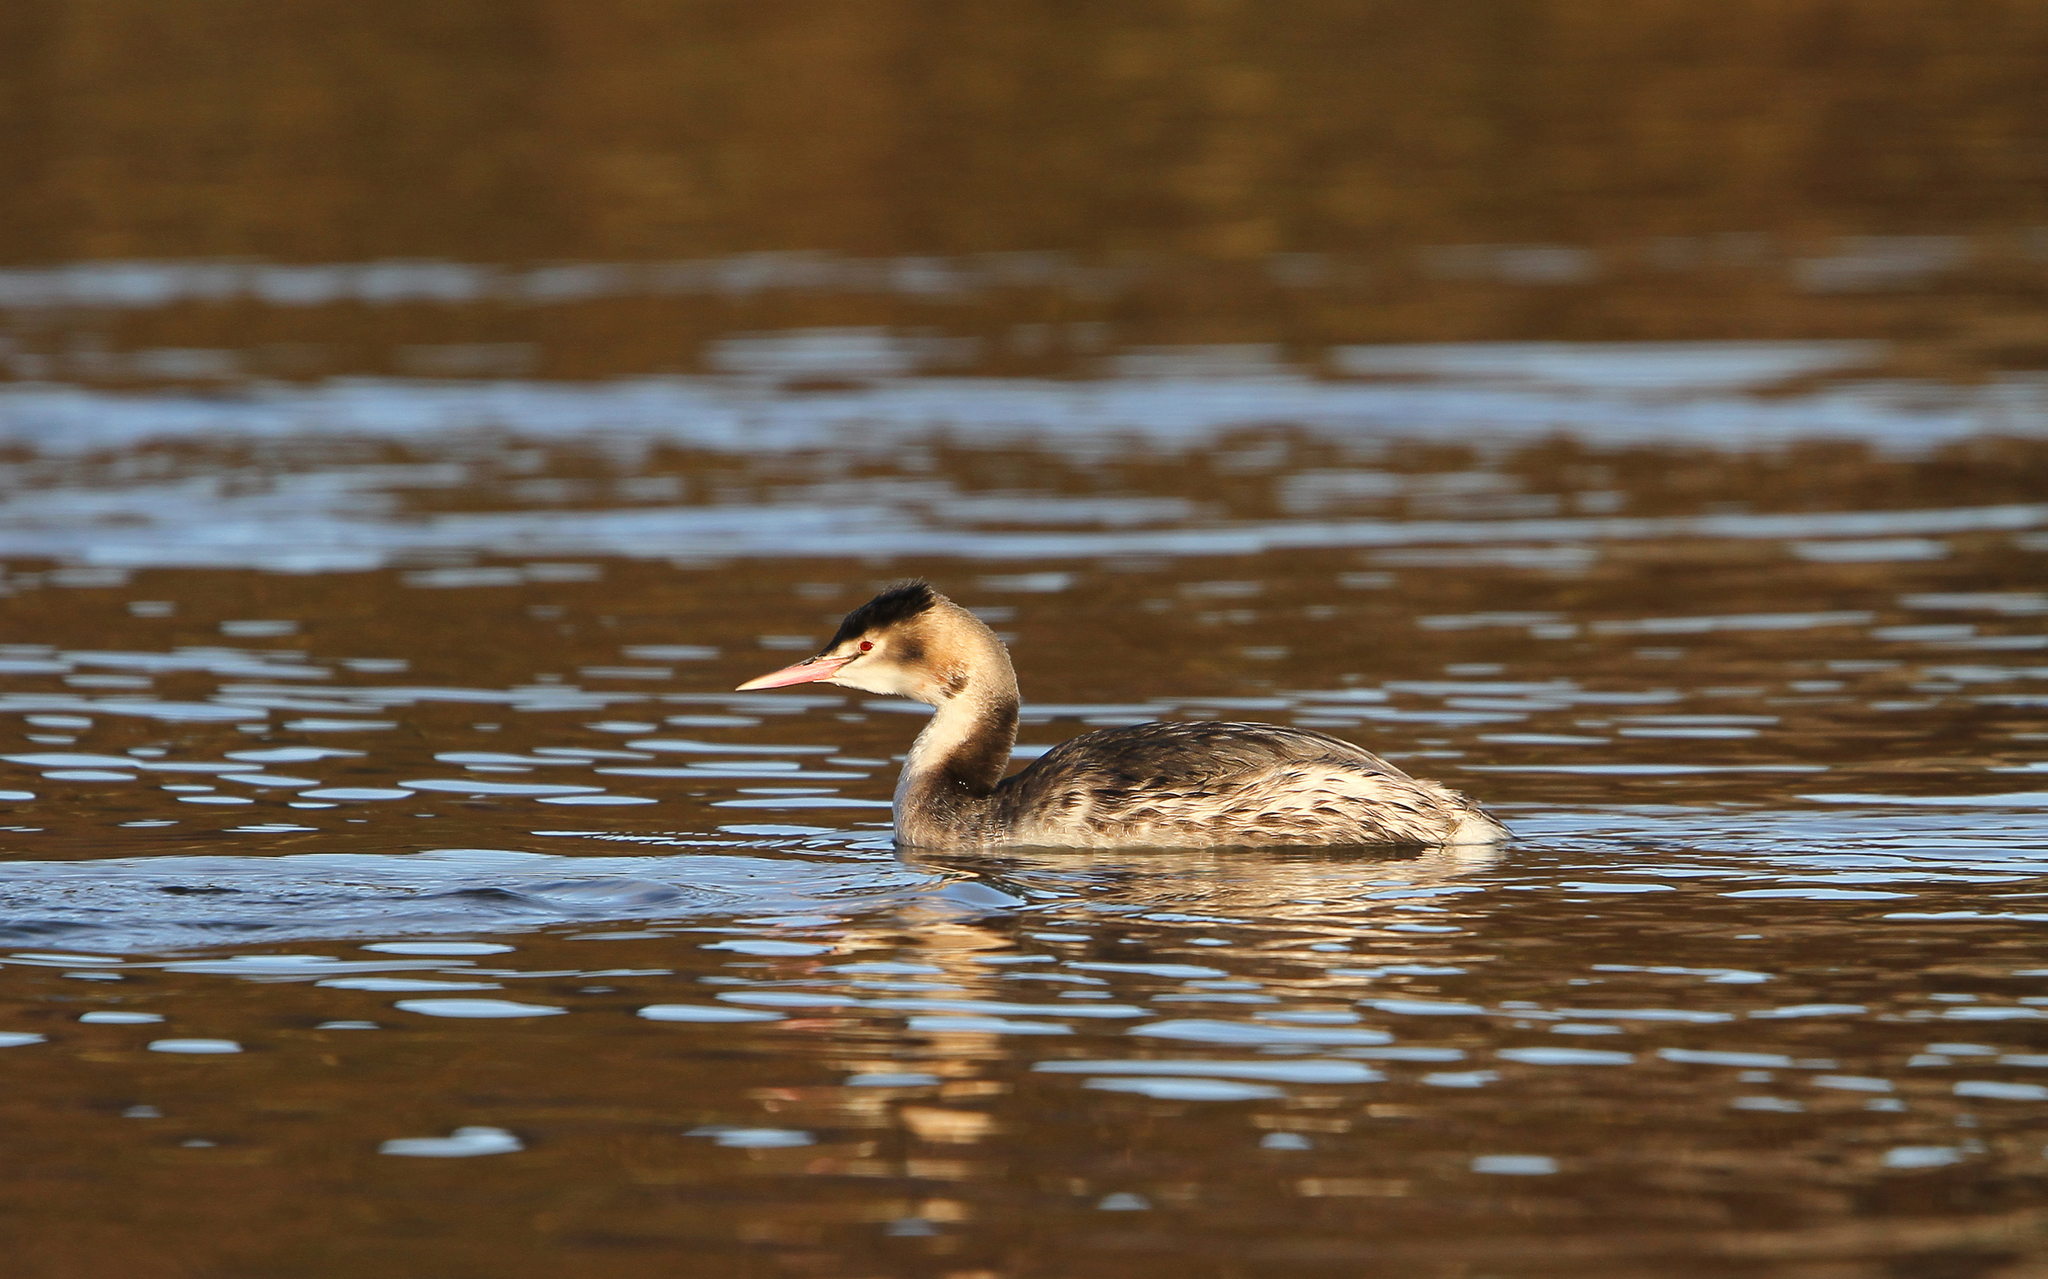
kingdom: Animalia
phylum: Chordata
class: Aves
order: Podicipediformes
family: Podicipedidae
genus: Podiceps
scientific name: Podiceps cristatus
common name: Great crested grebe
